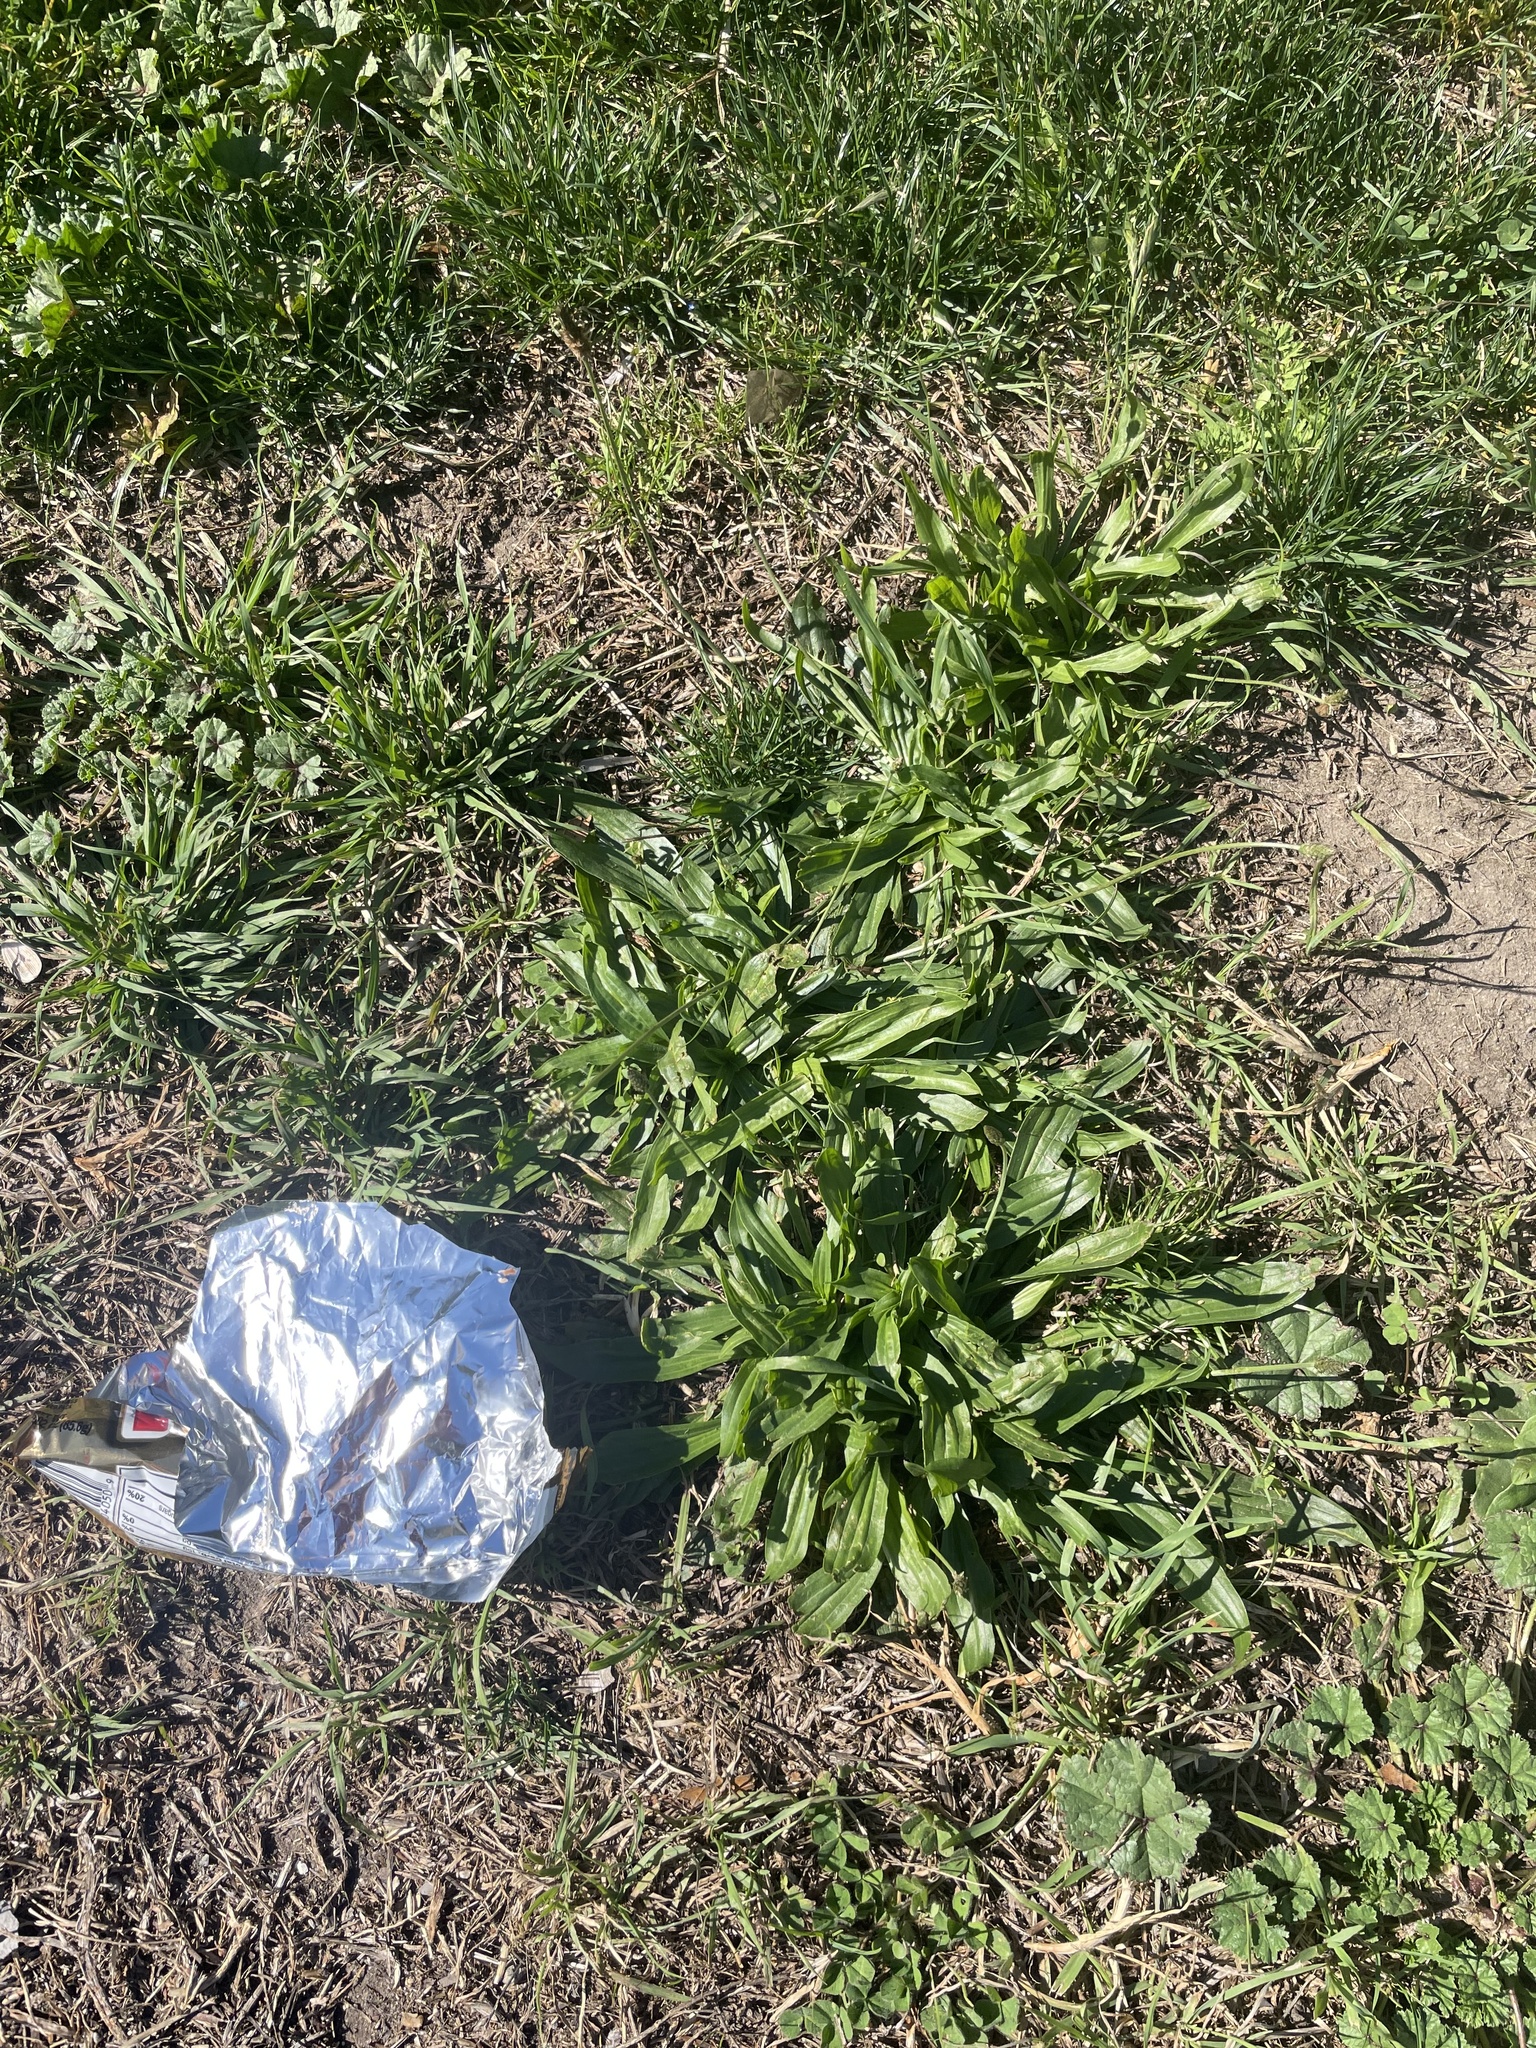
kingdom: Plantae
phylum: Tracheophyta
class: Magnoliopsida
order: Lamiales
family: Plantaginaceae
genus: Plantago
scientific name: Plantago lanceolata
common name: Ribwort plantain
